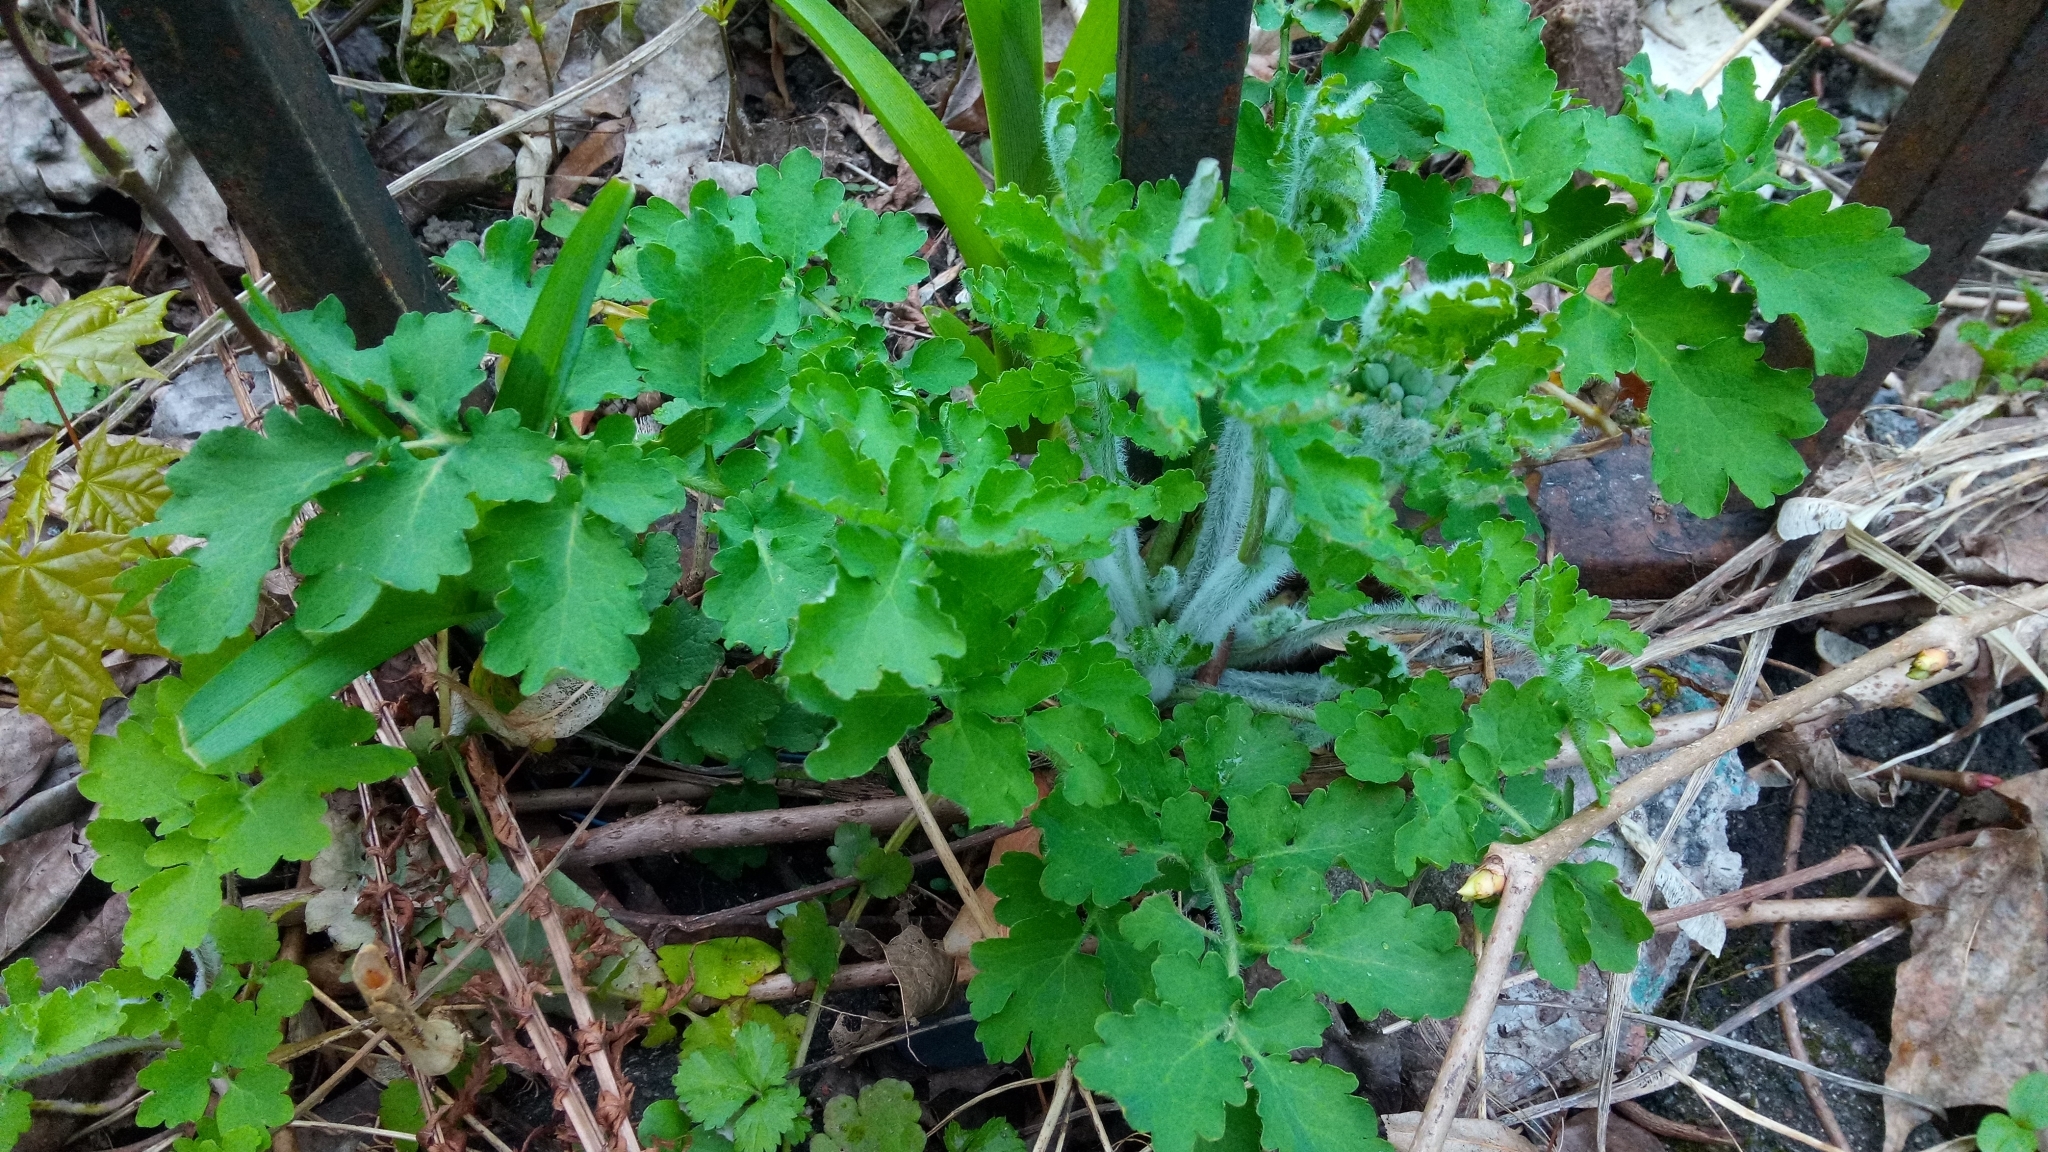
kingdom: Plantae
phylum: Tracheophyta
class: Magnoliopsida
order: Ranunculales
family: Papaveraceae
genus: Chelidonium
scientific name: Chelidonium majus
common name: Greater celandine
